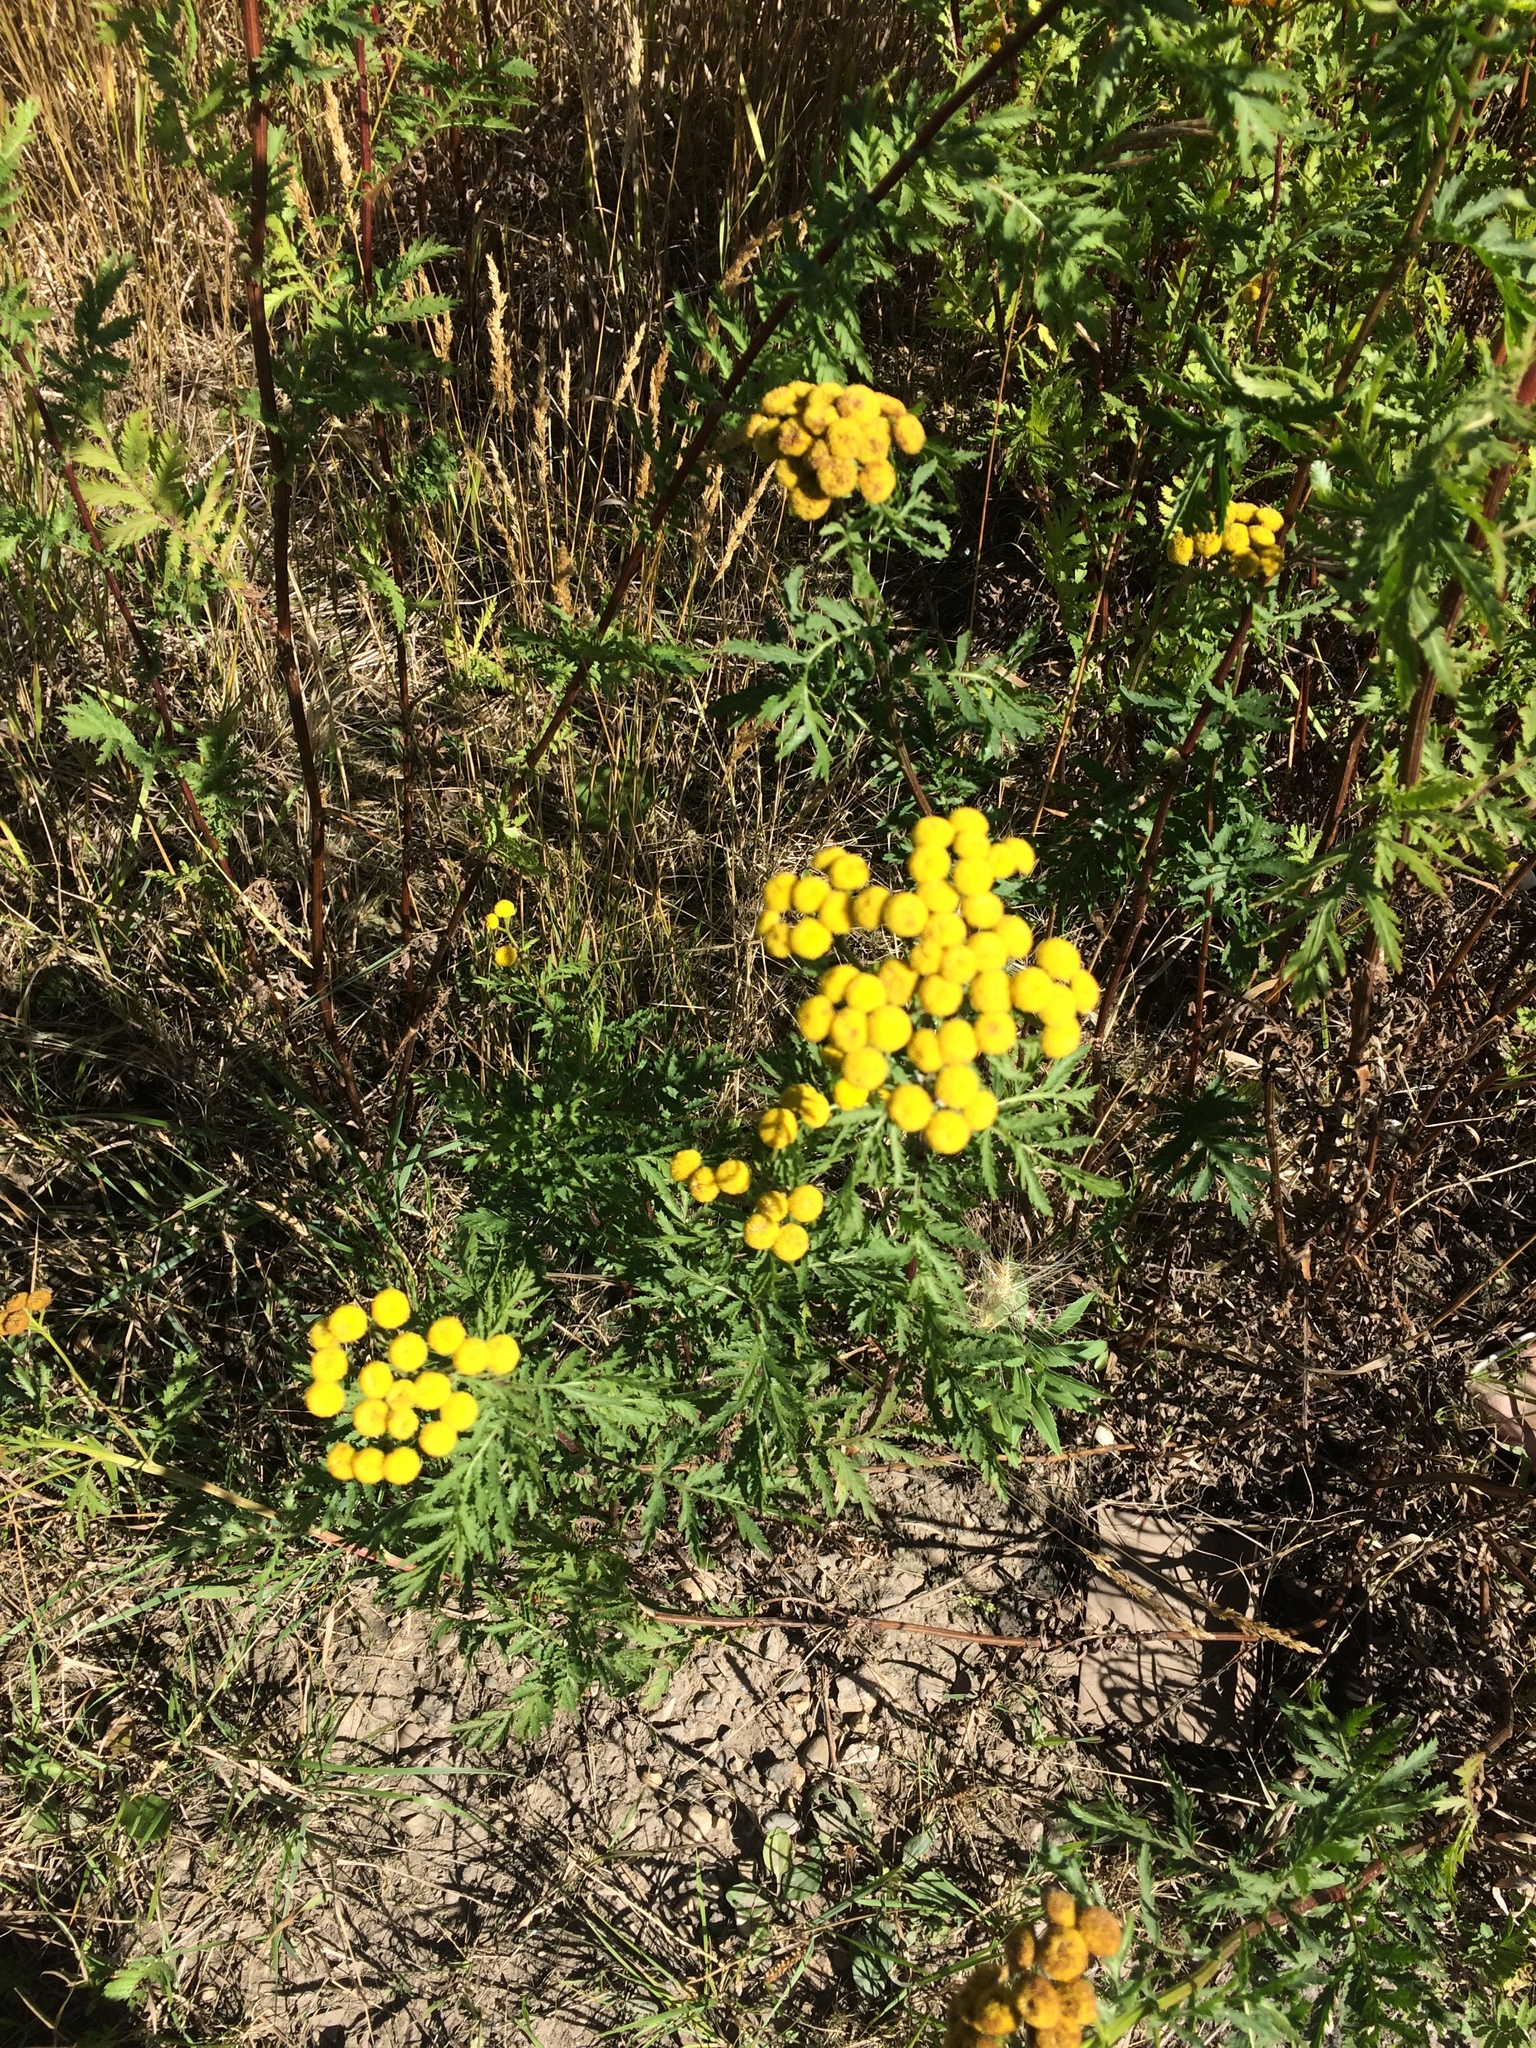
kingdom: Plantae
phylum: Tracheophyta
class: Magnoliopsida
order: Asterales
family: Asteraceae
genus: Tanacetum
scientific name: Tanacetum vulgare
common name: Common tansy
